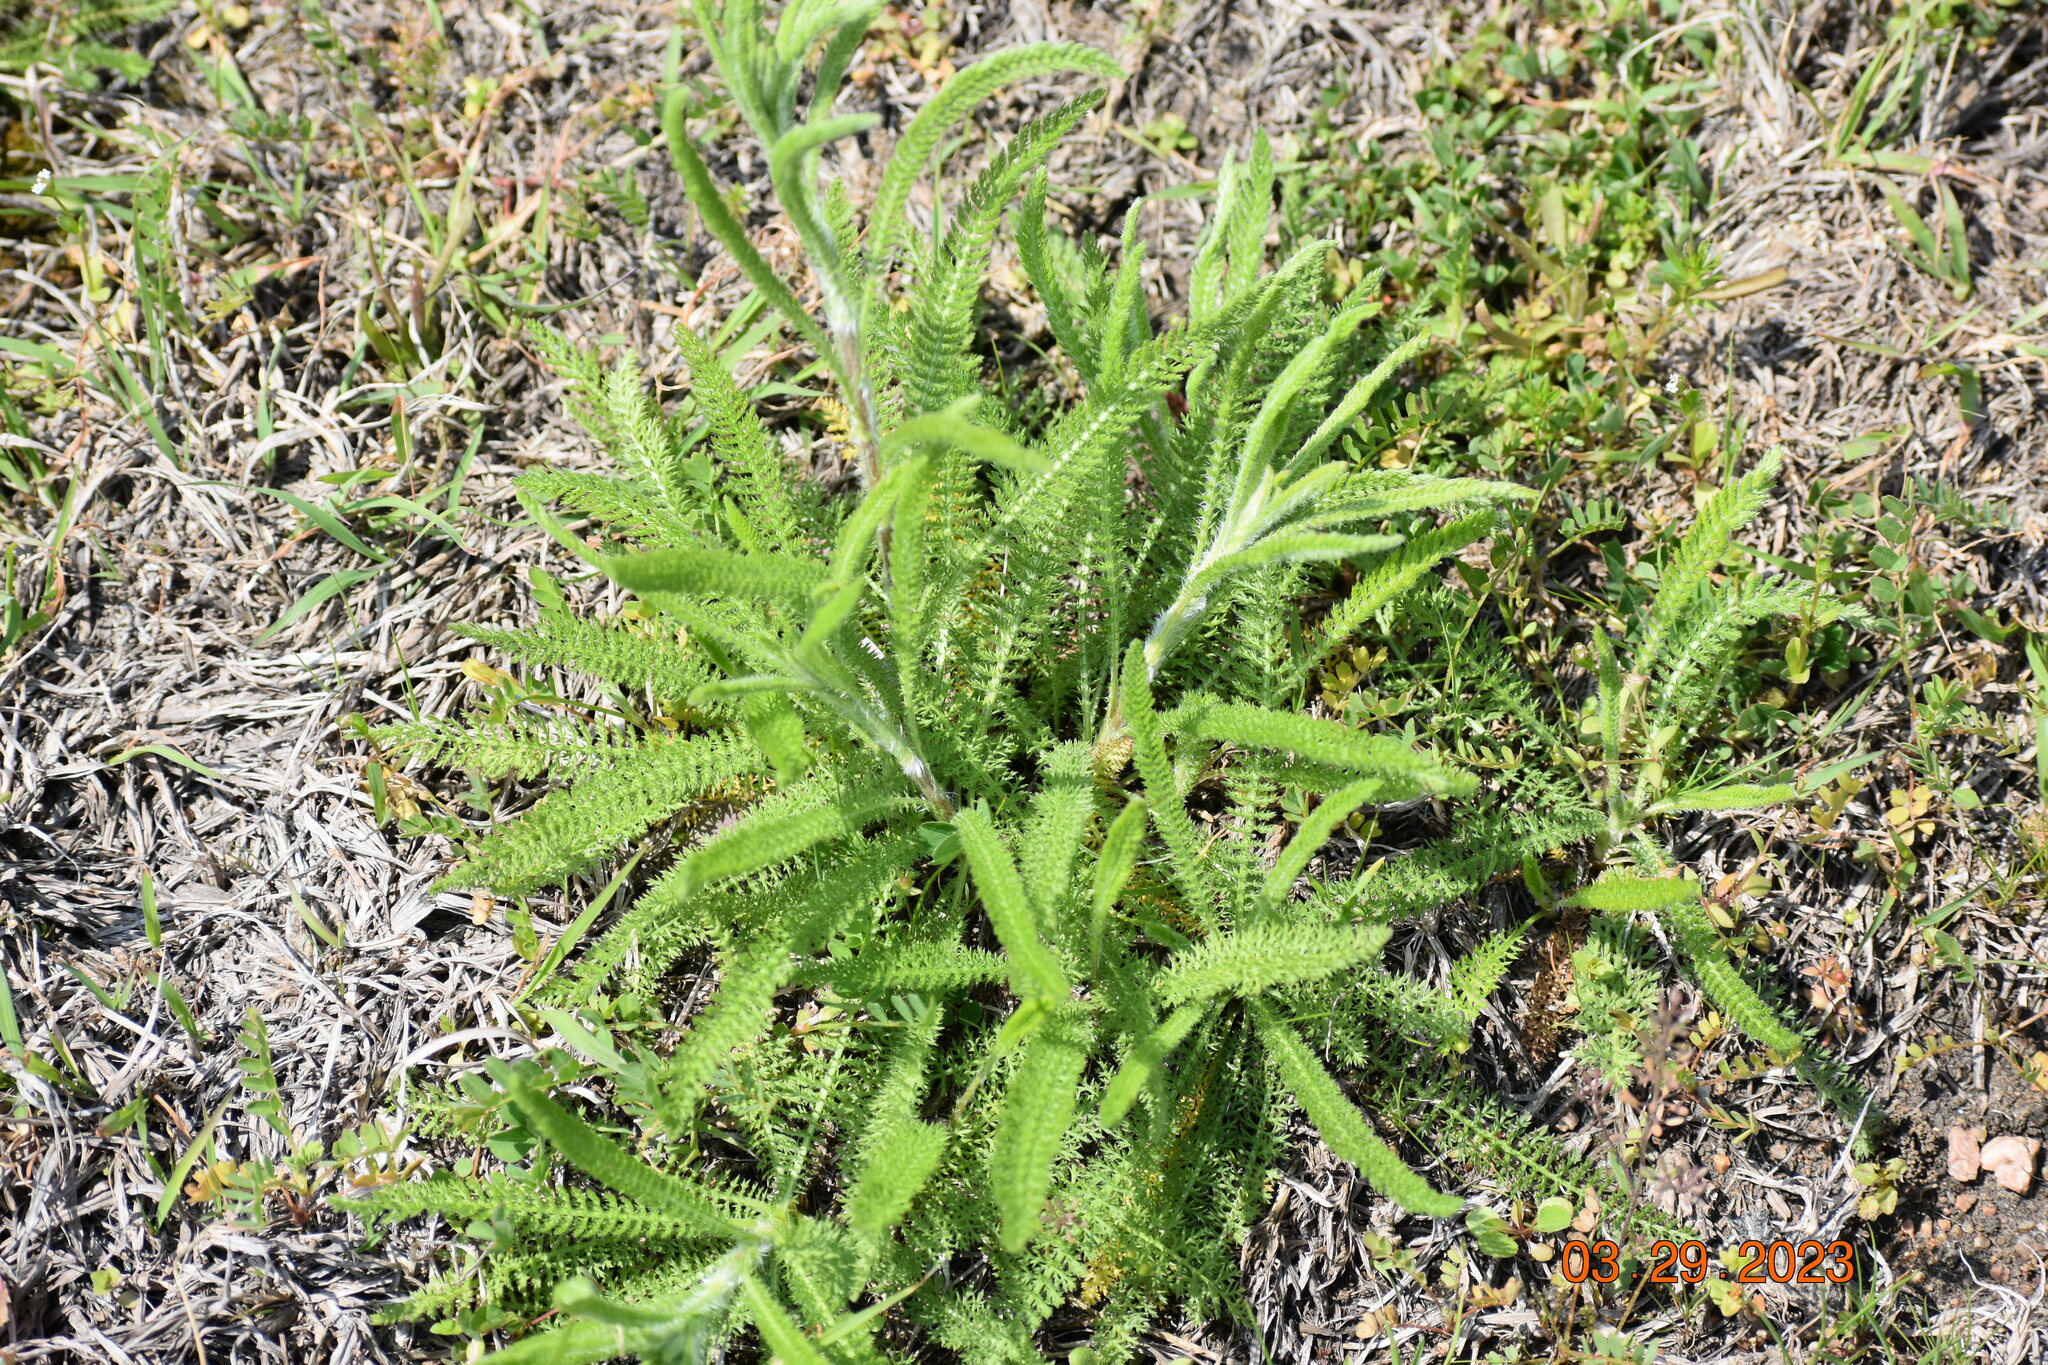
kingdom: Plantae
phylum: Tracheophyta
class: Magnoliopsida
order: Asterales
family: Asteraceae
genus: Achillea
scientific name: Achillea millefolium
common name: Yarrow
